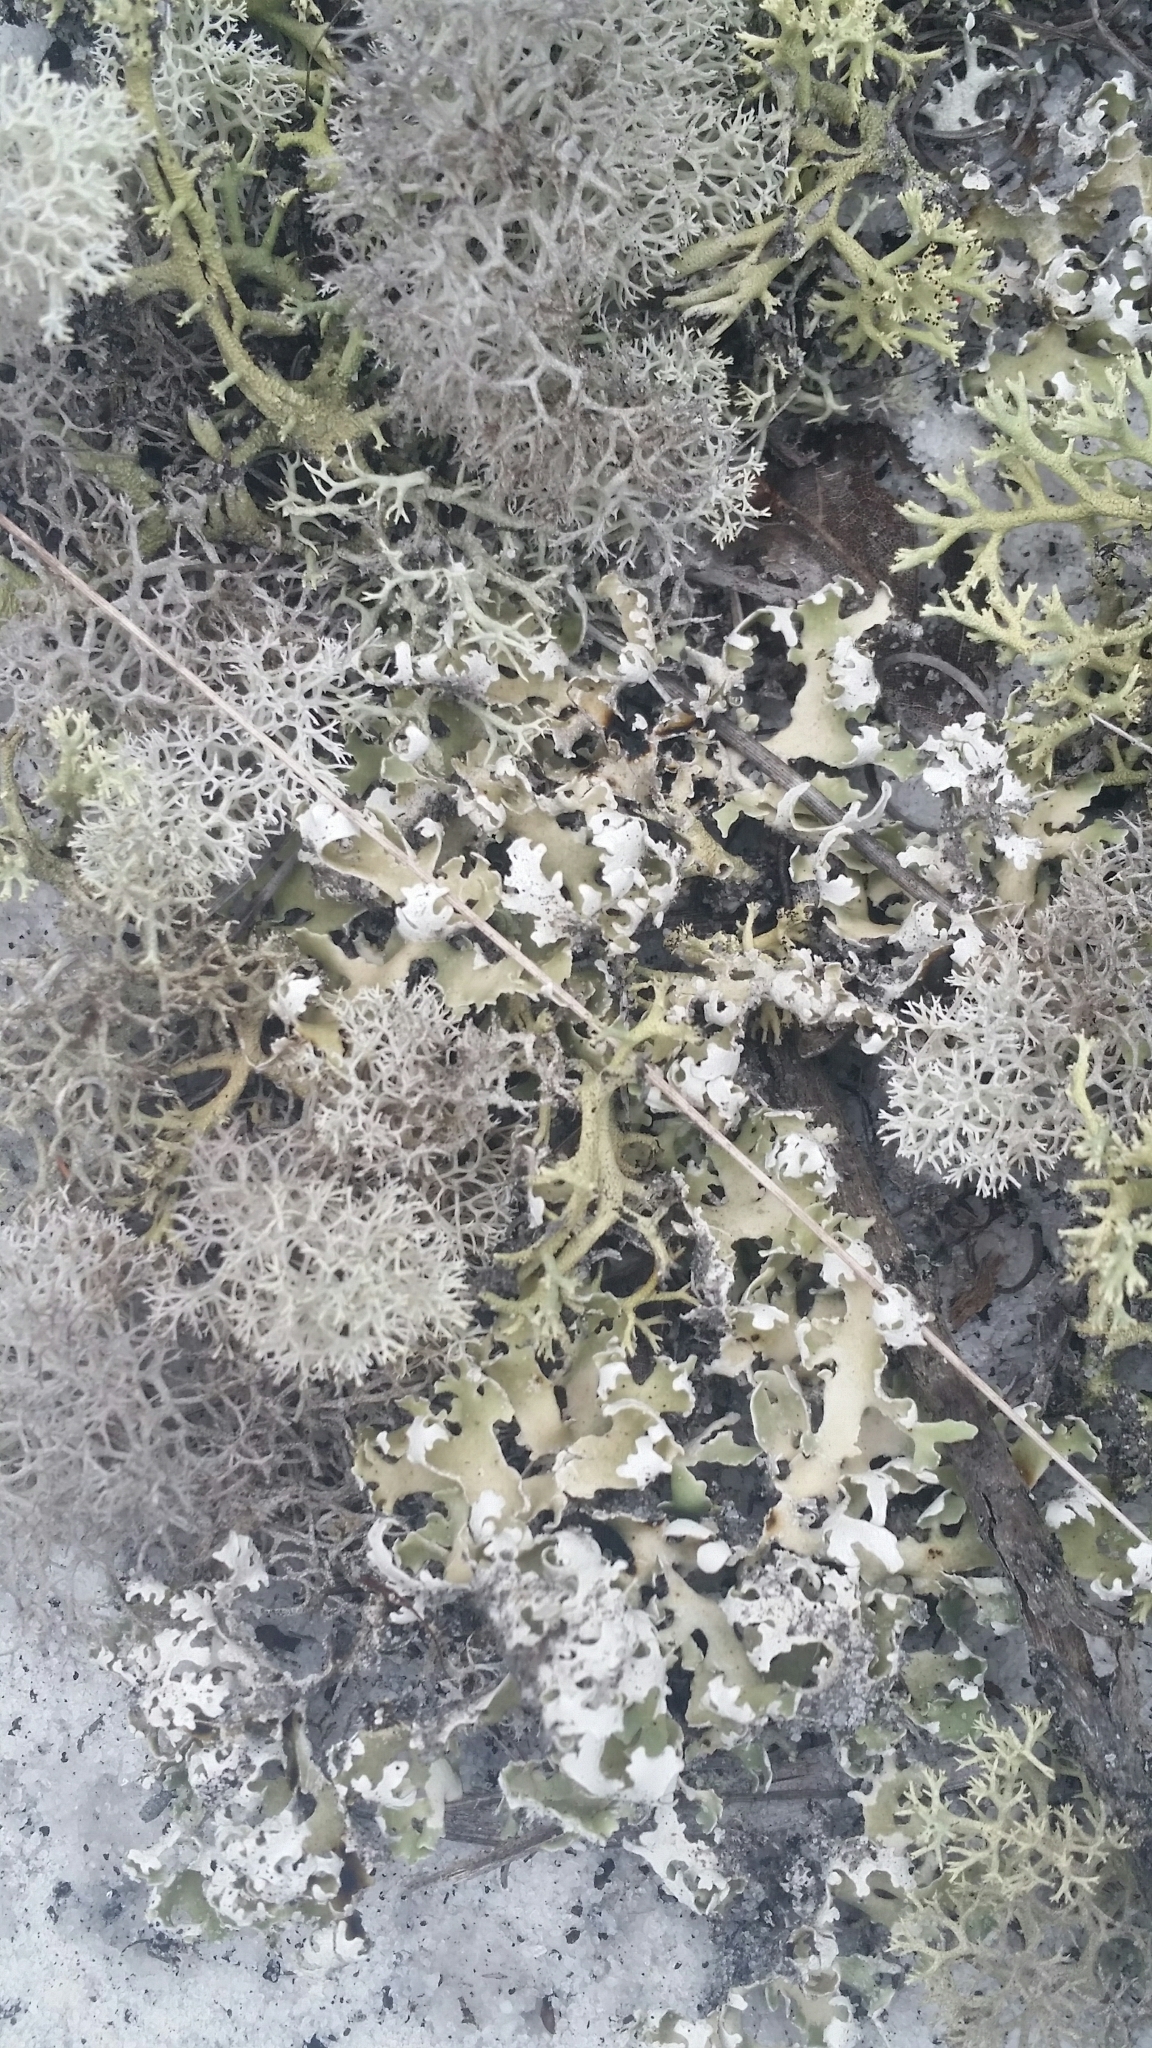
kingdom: Fungi
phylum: Ascomycota
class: Lecanoromycetes
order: Lecanorales
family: Cladoniaceae
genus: Cladonia
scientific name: Cladonia prostrata
